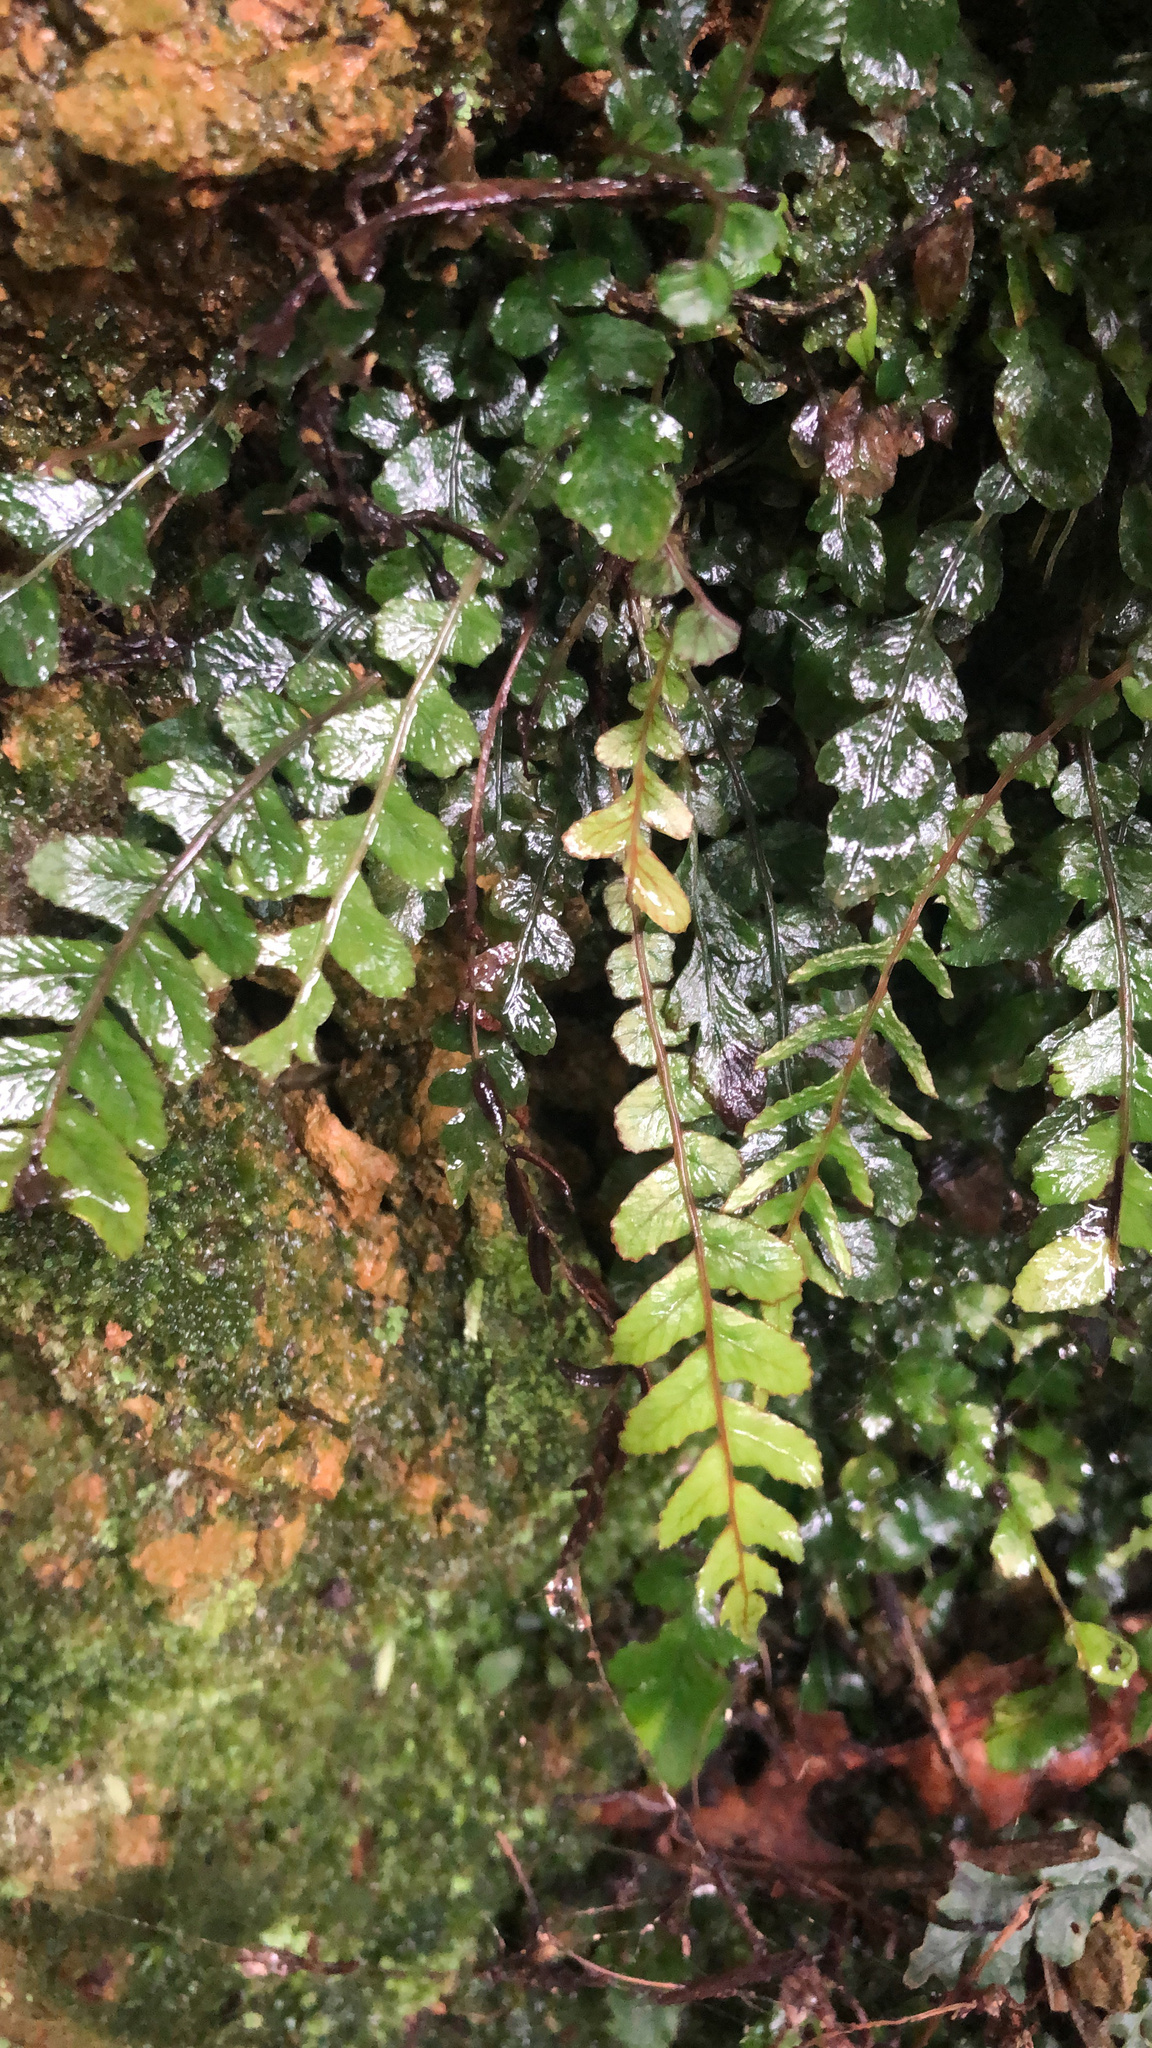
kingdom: Plantae
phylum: Tracheophyta
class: Polypodiopsida
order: Polypodiales
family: Blechnaceae
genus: Austroblechnum
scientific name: Austroblechnum membranaceum
